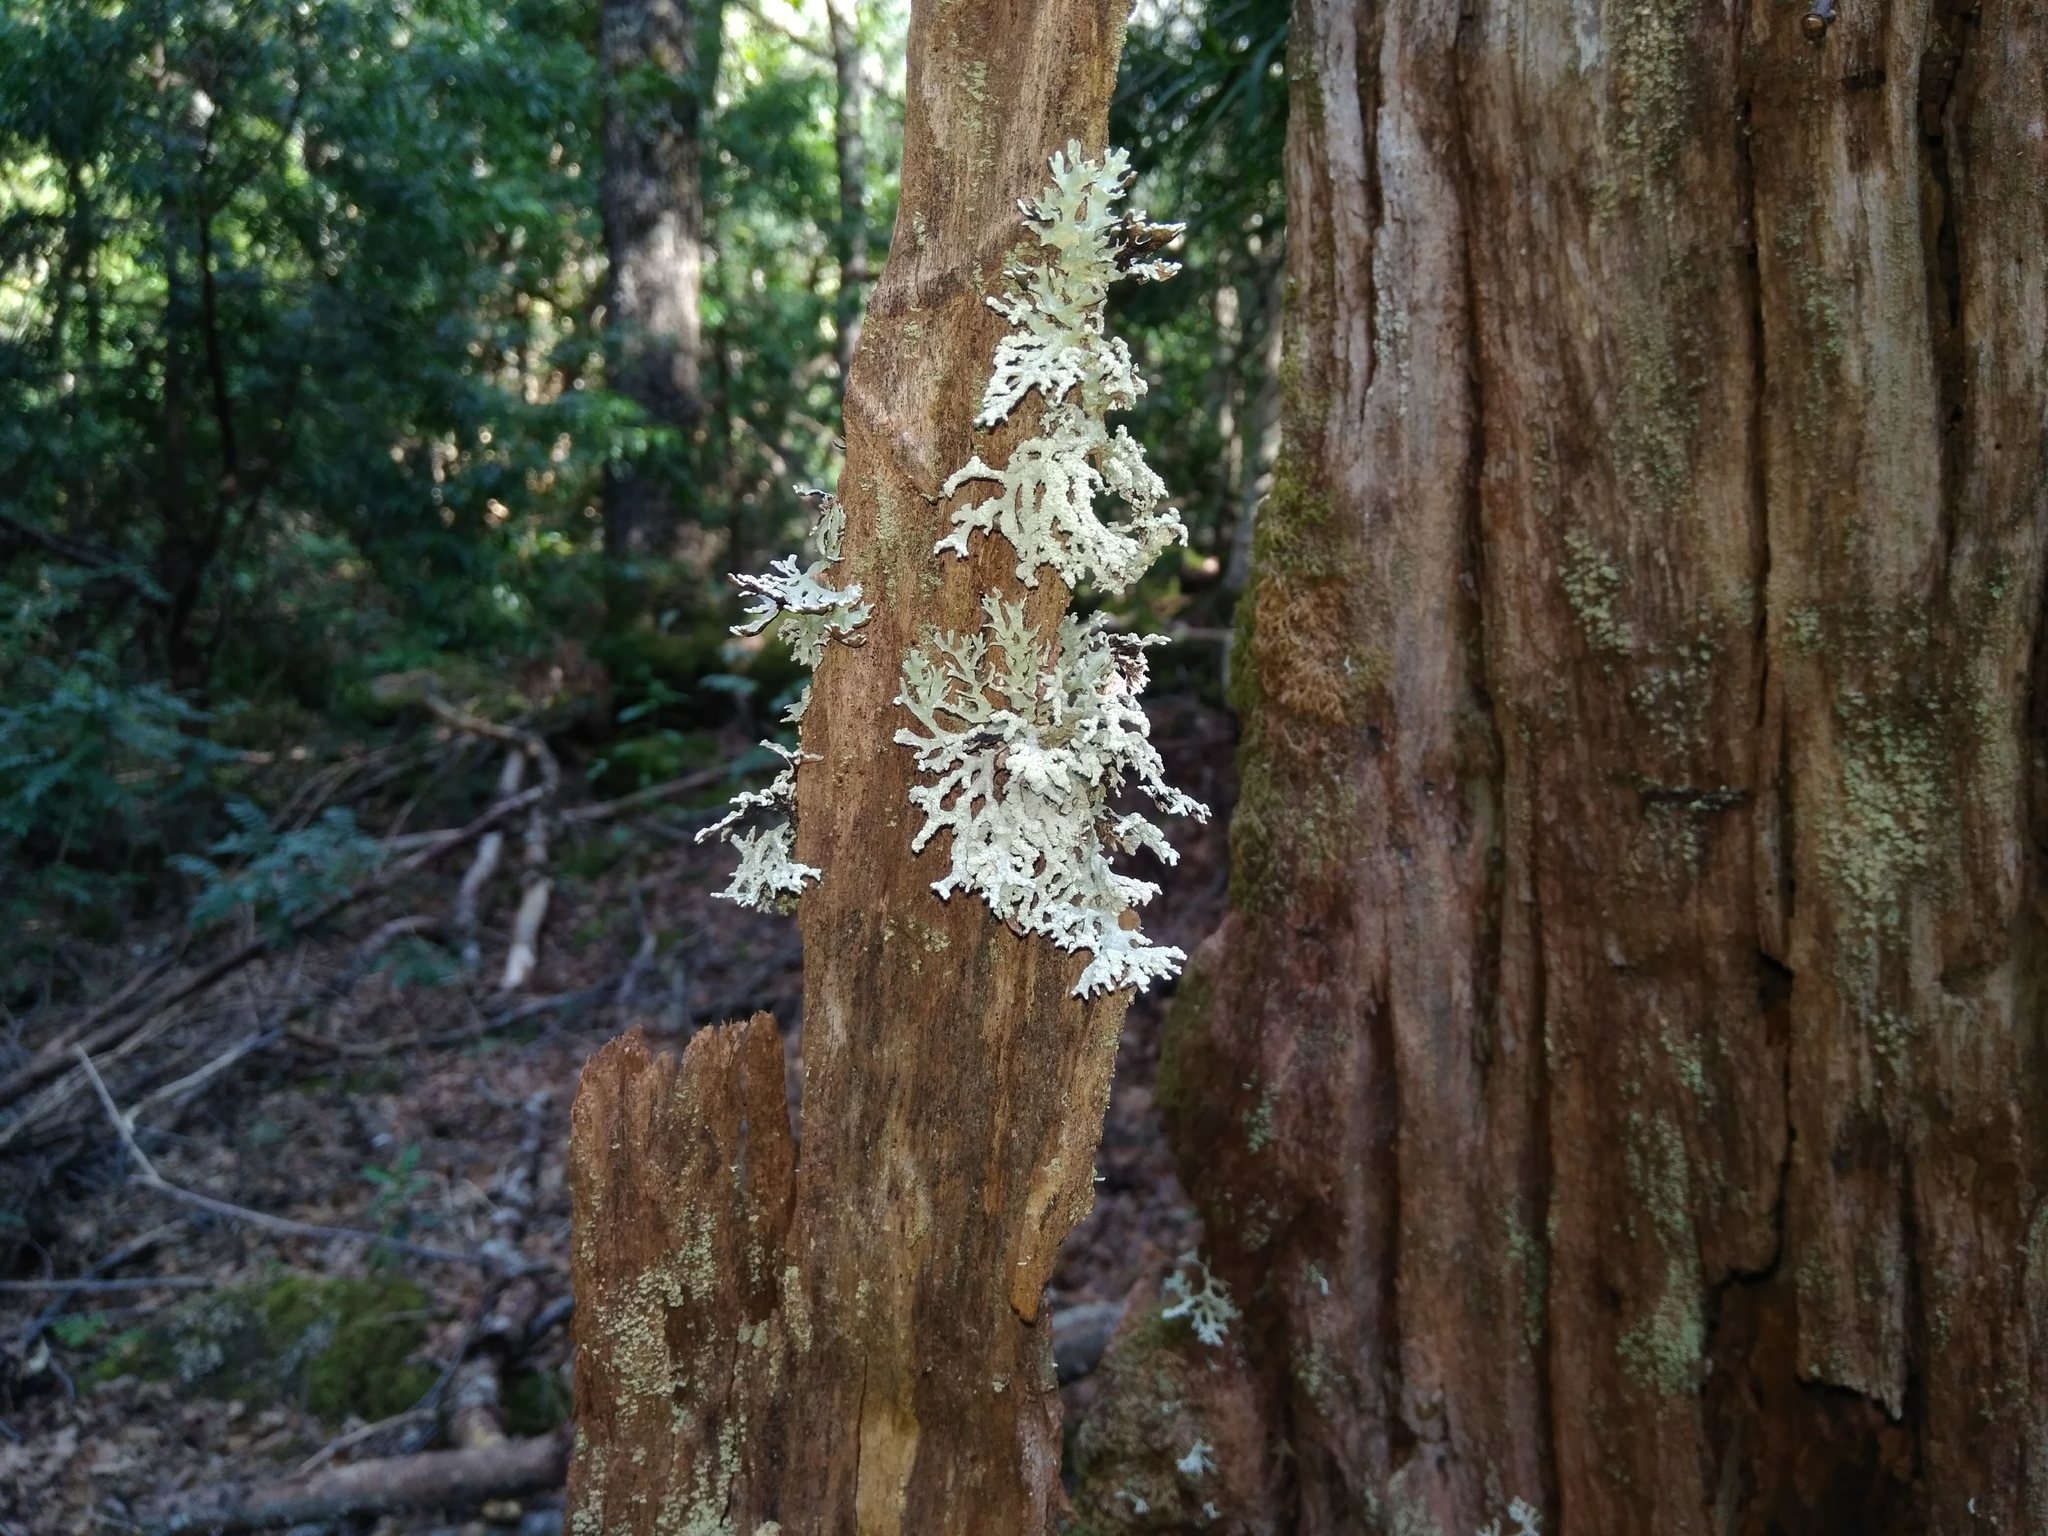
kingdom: Fungi
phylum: Ascomycota
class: Lecanoromycetes
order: Lecanorales
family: Parmeliaceae
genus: Hypogymnia
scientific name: Hypogymnia hultenii
